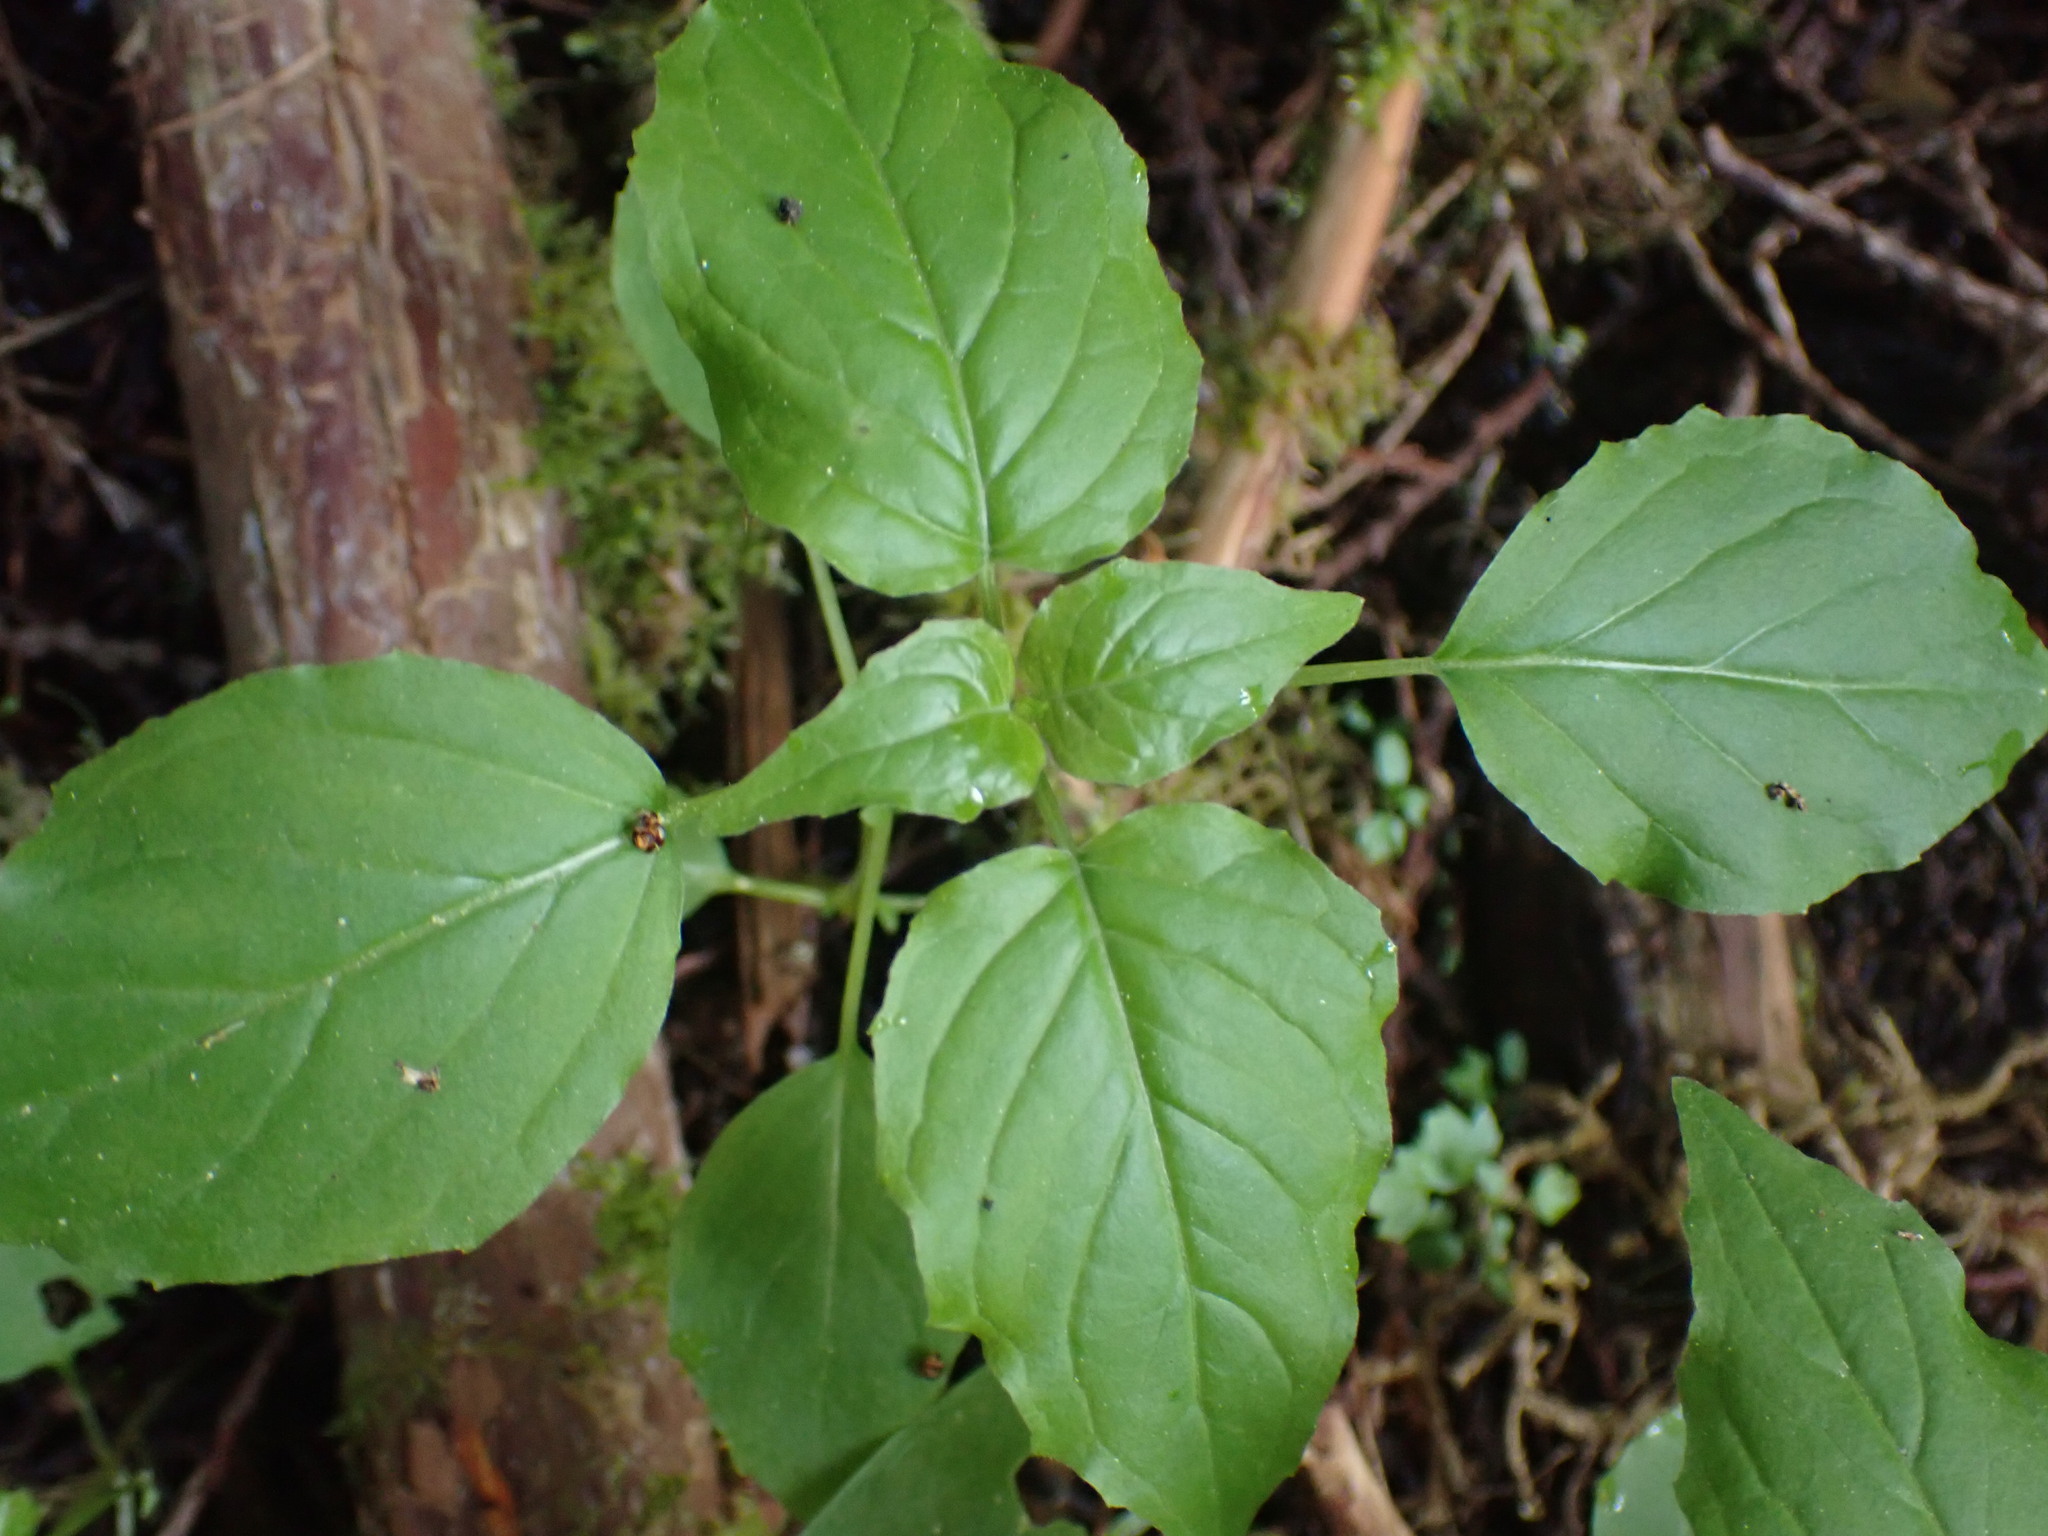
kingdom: Plantae
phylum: Tracheophyta
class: Magnoliopsida
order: Myrtales
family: Onagraceae
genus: Circaea
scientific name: Circaea alpina
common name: Alpine enchanter's-nightshade
